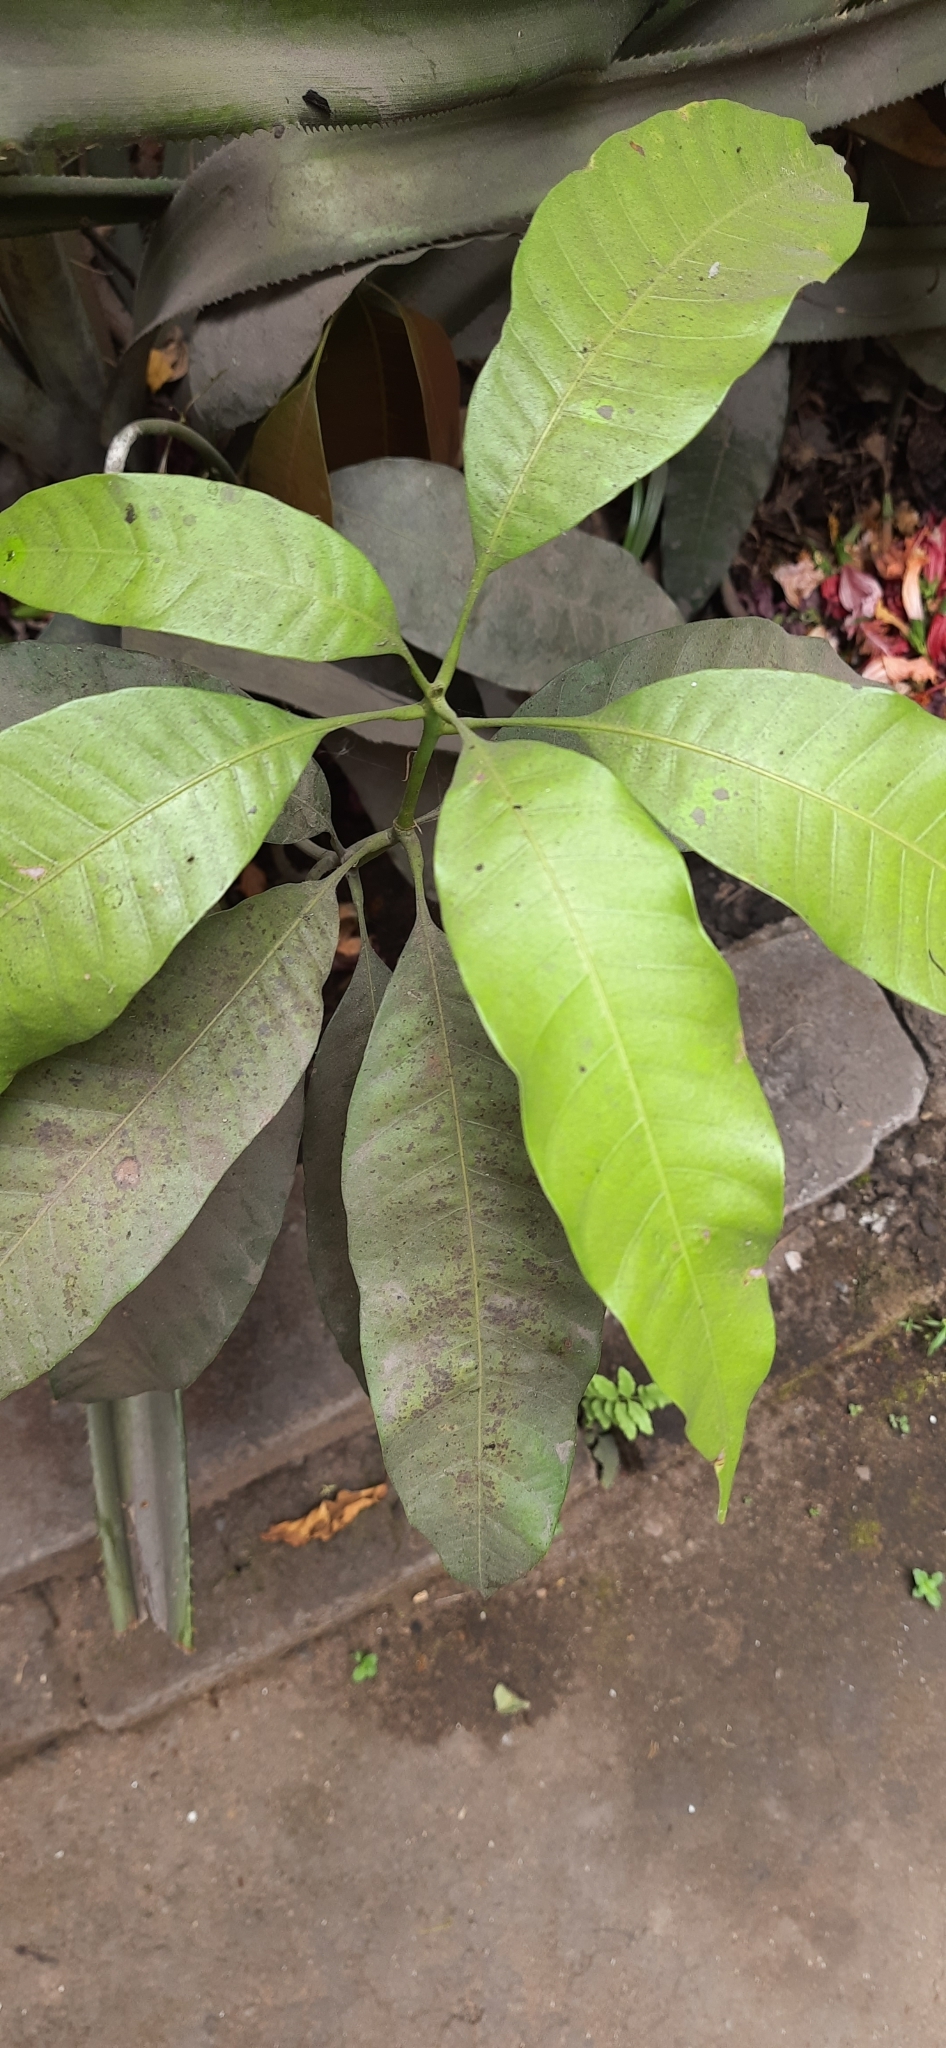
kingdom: Plantae
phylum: Tracheophyta
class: Magnoliopsida
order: Sapindales
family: Anacardiaceae
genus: Mangifera
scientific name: Mangifera indica
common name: Mango
